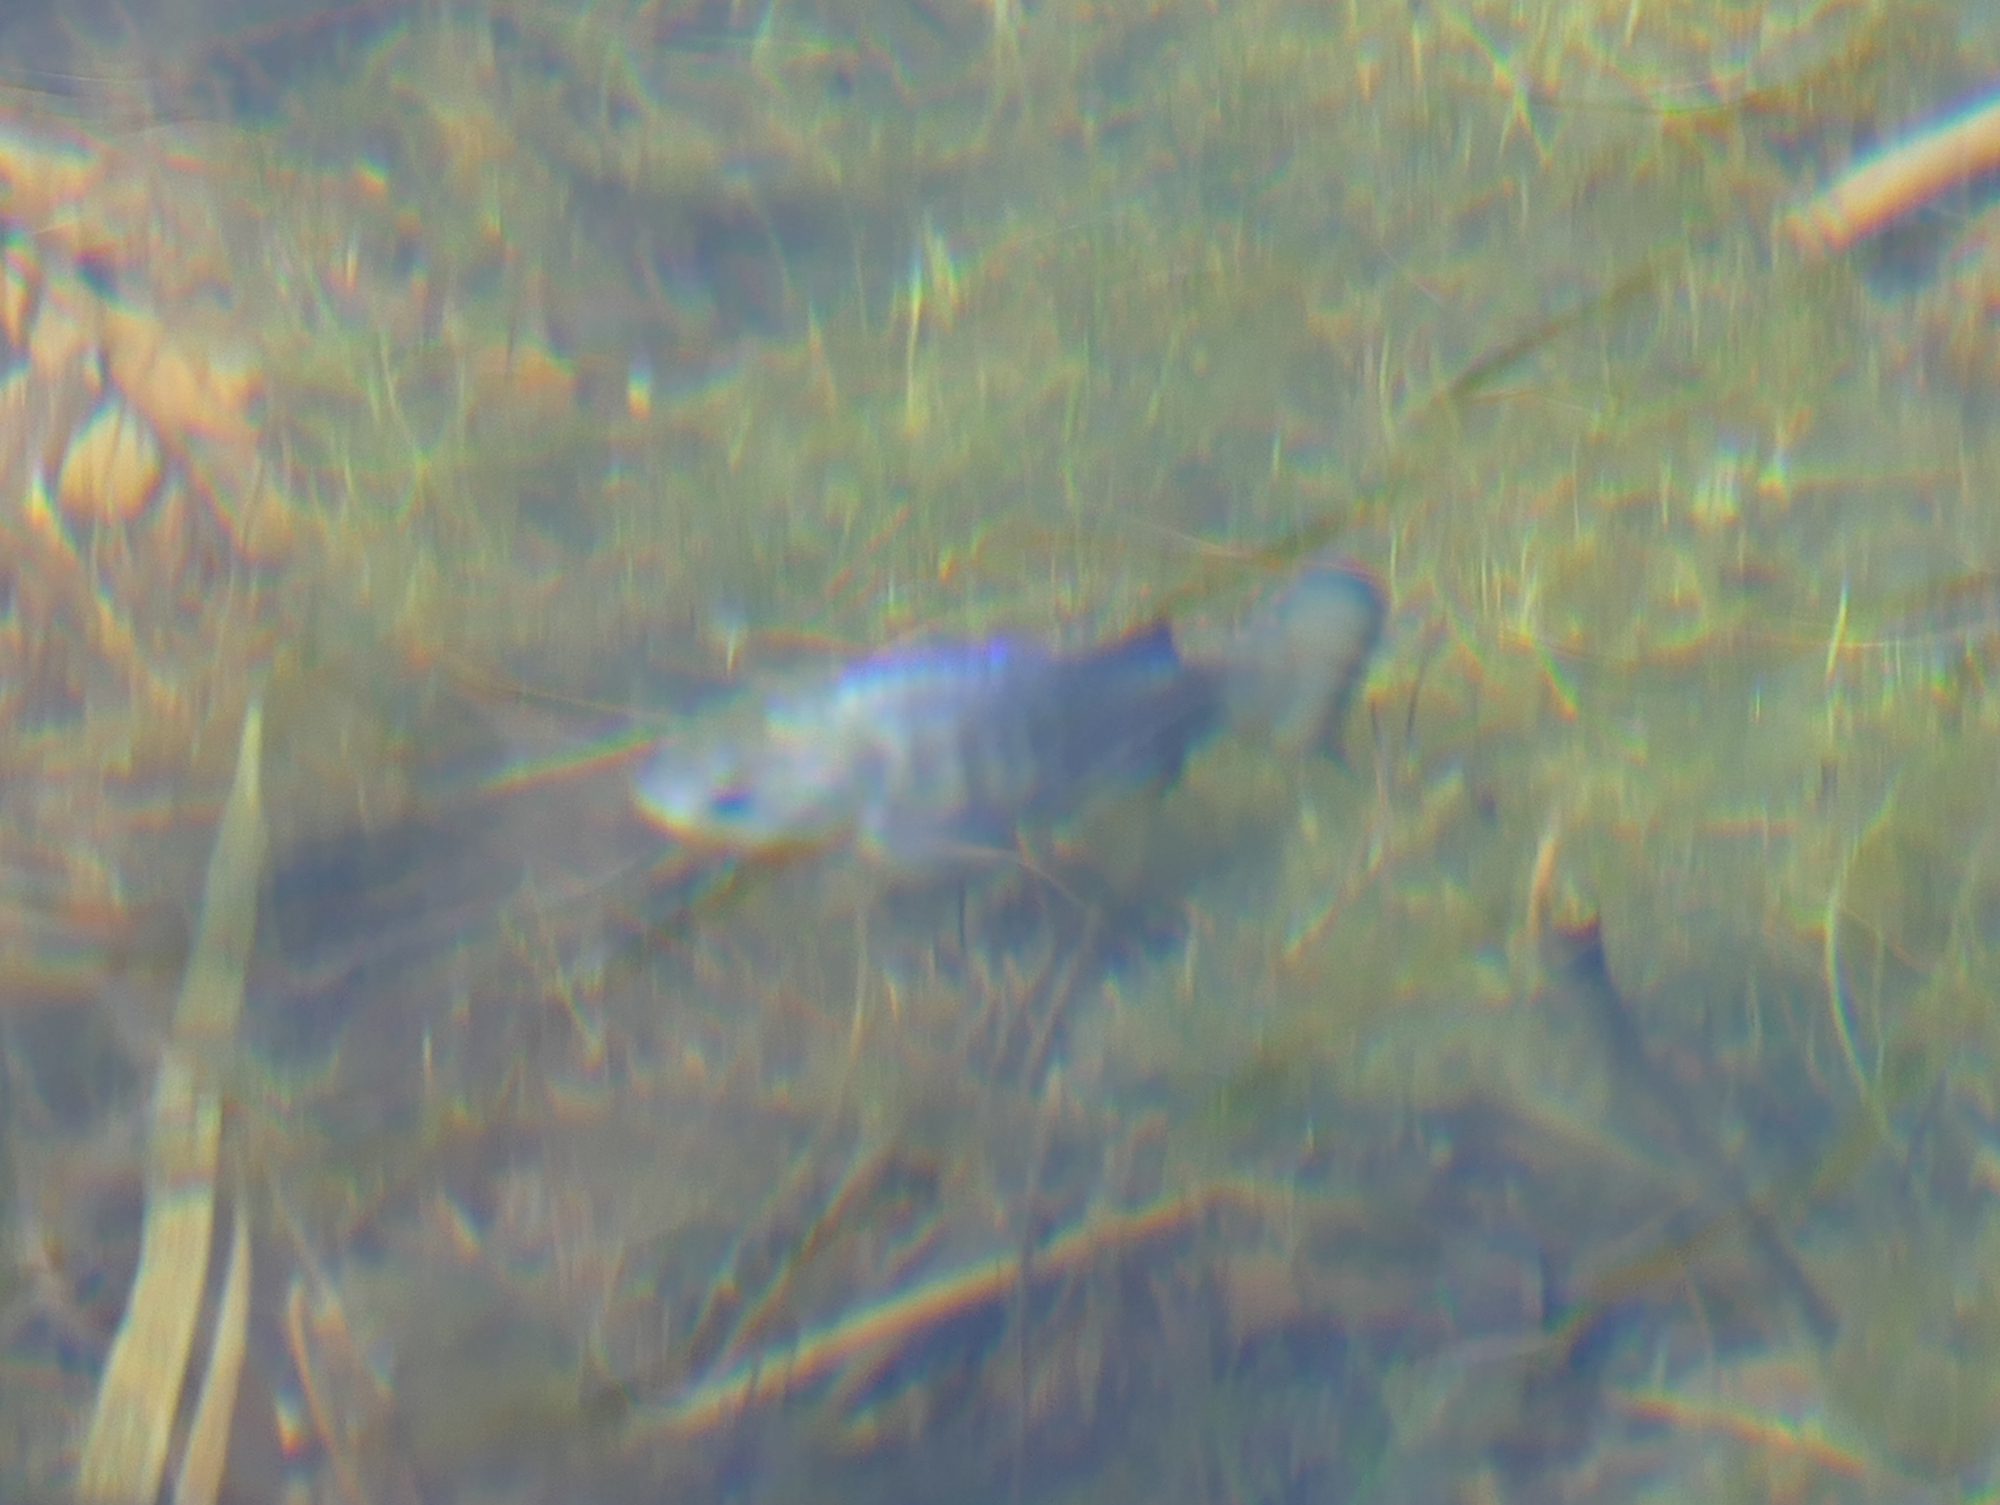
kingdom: Animalia
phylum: Chordata
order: Cyprinodontiformes
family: Cyprinodontidae
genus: Cyprinodon
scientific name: Cyprinodon nevadensis
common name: Amargosa pupfish
